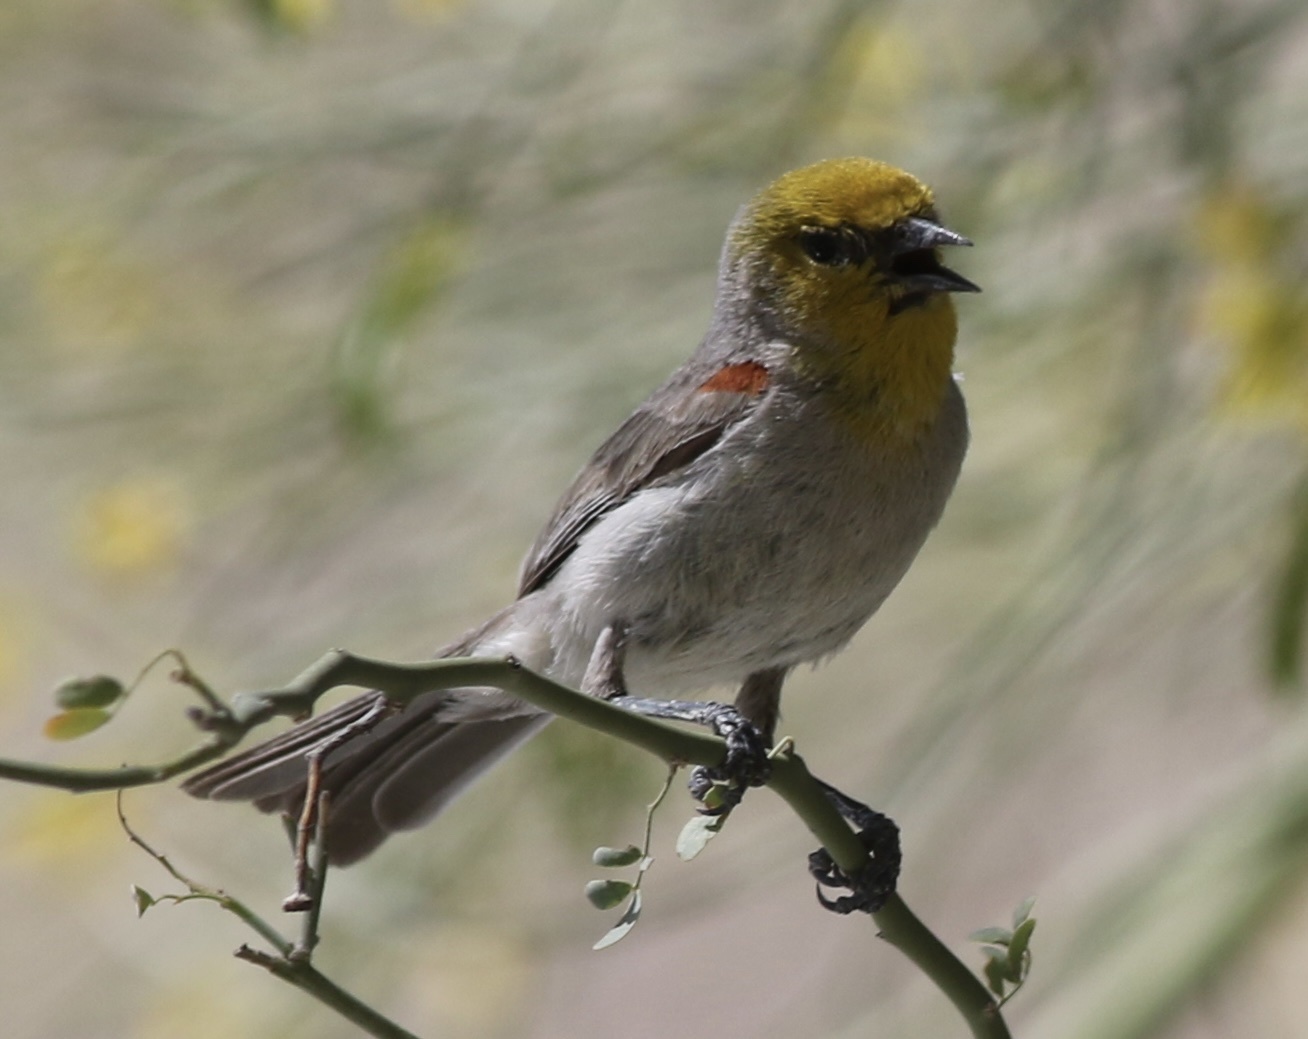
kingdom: Animalia
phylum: Chordata
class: Aves
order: Passeriformes
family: Remizidae
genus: Auriparus
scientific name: Auriparus flaviceps
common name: Verdin
